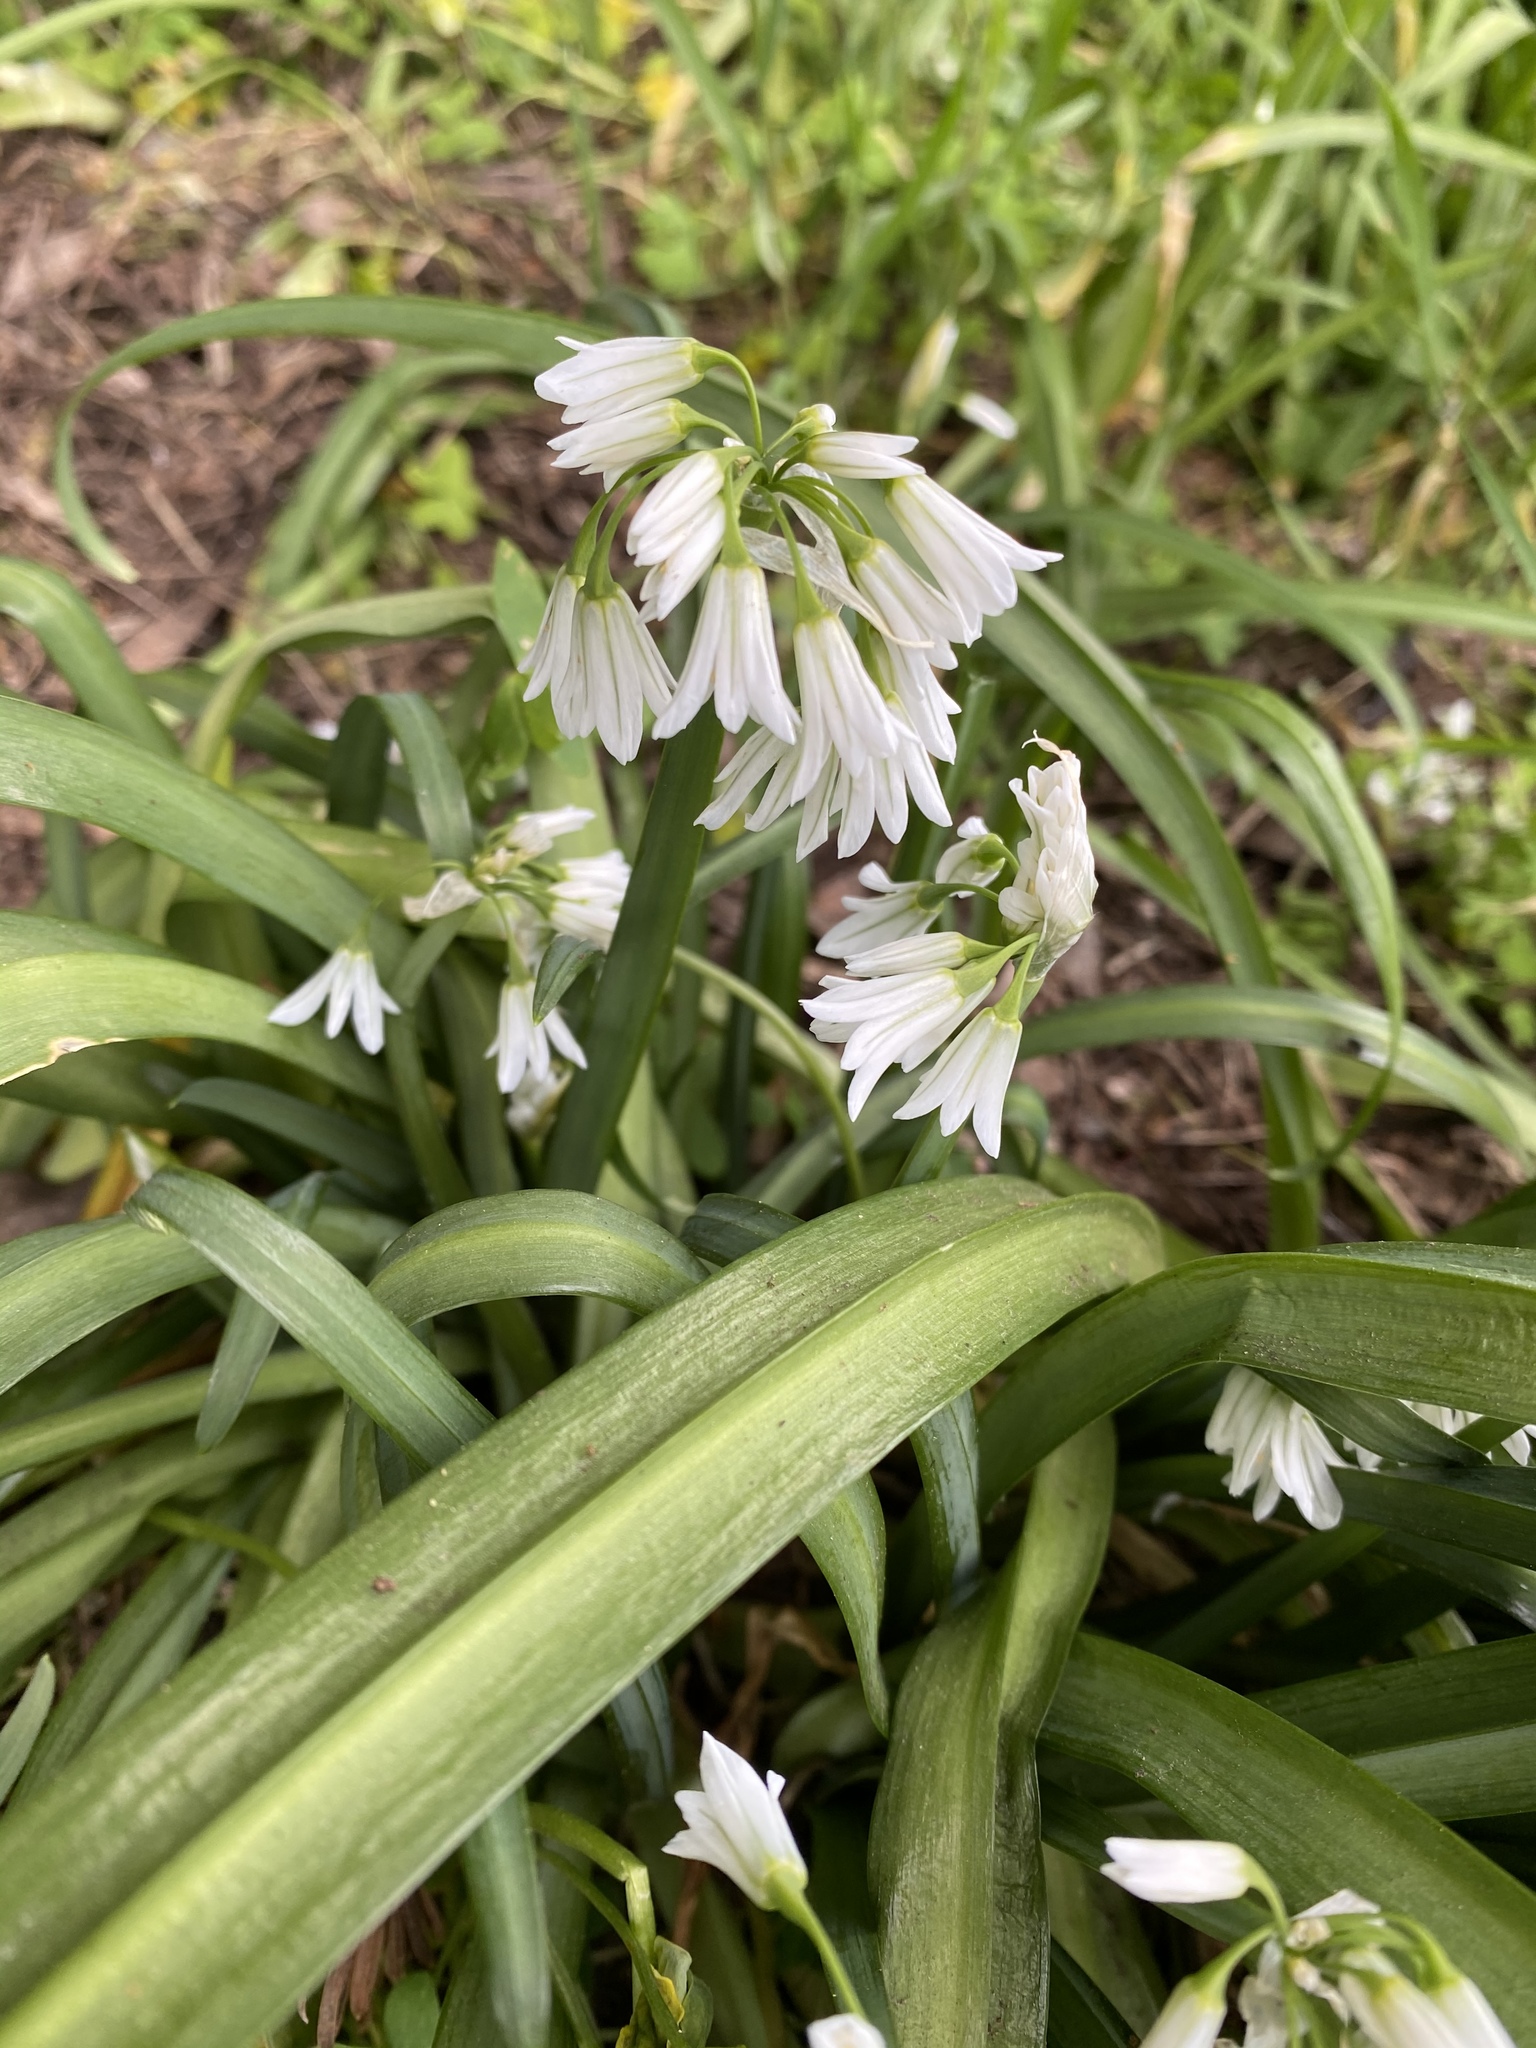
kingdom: Plantae
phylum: Tracheophyta
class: Liliopsida
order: Asparagales
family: Amaryllidaceae
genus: Allium
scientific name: Allium triquetrum
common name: Three-cornered garlic
